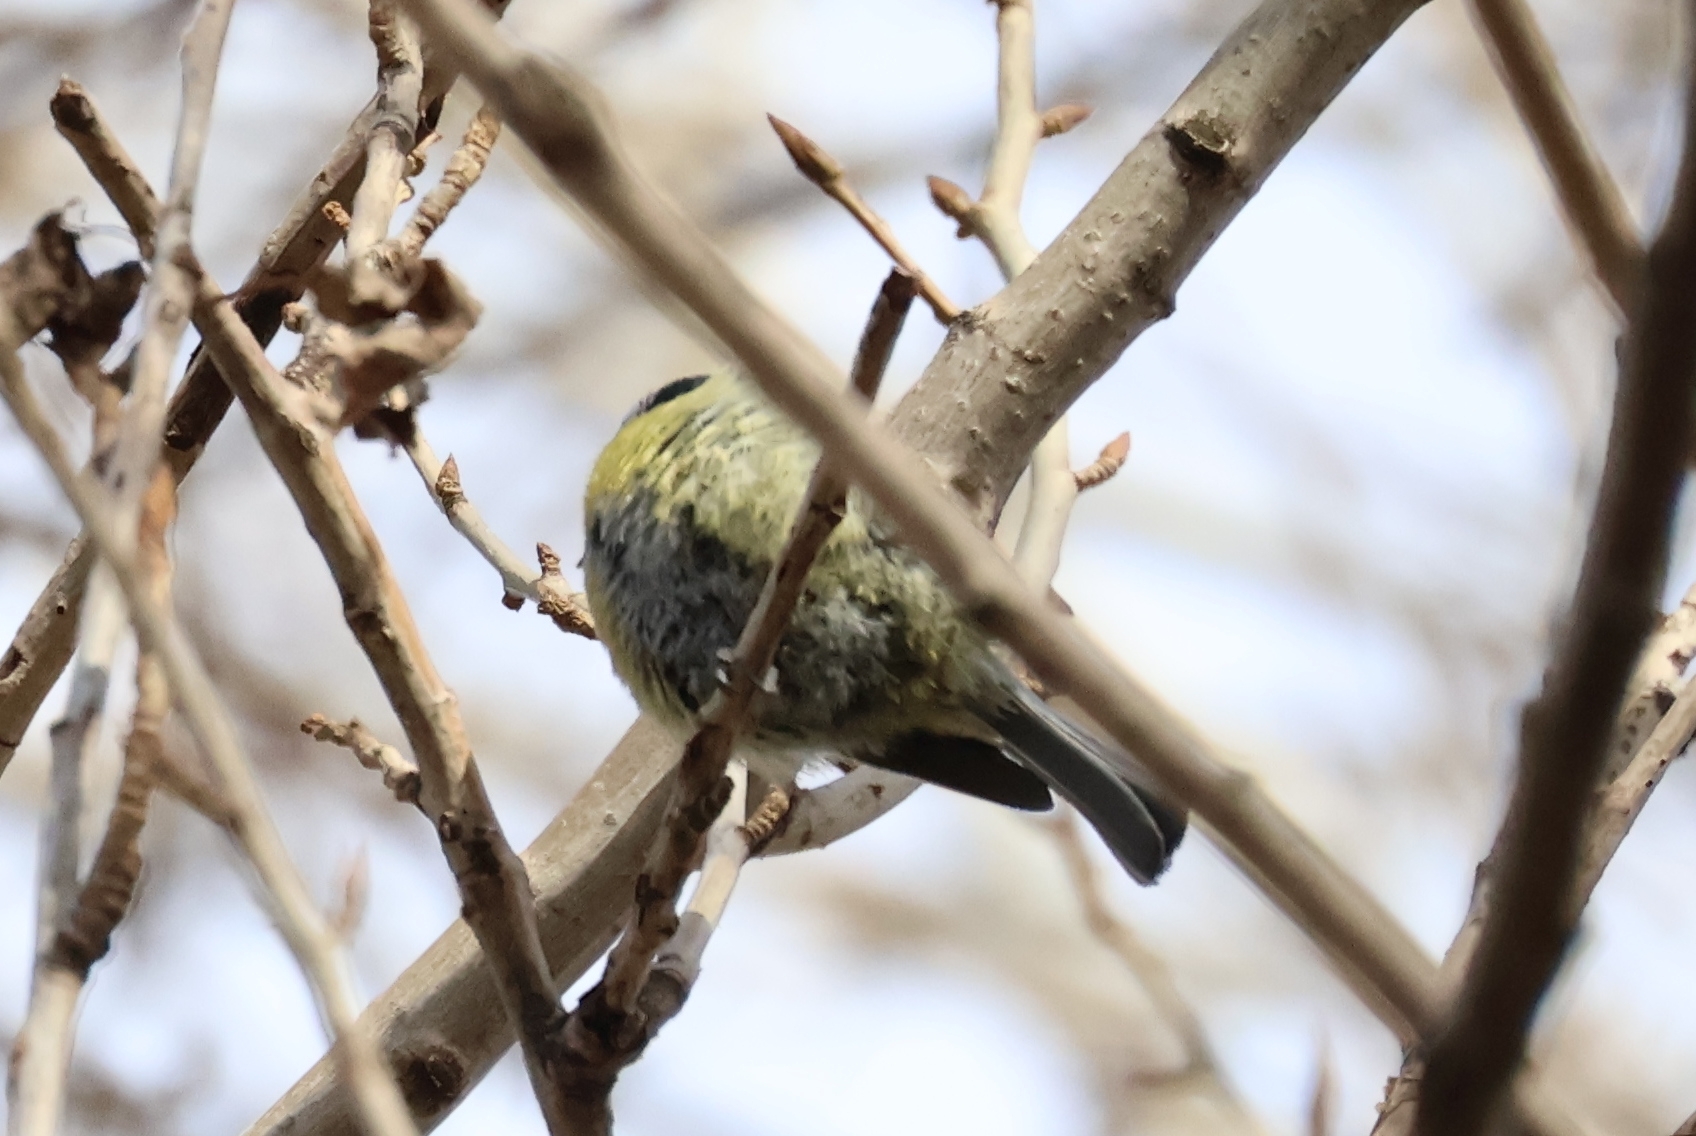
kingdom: Animalia
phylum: Chordata
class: Aves
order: Passeriformes
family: Paridae
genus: Cyanistes
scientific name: Cyanistes caeruleus
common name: Eurasian blue tit
